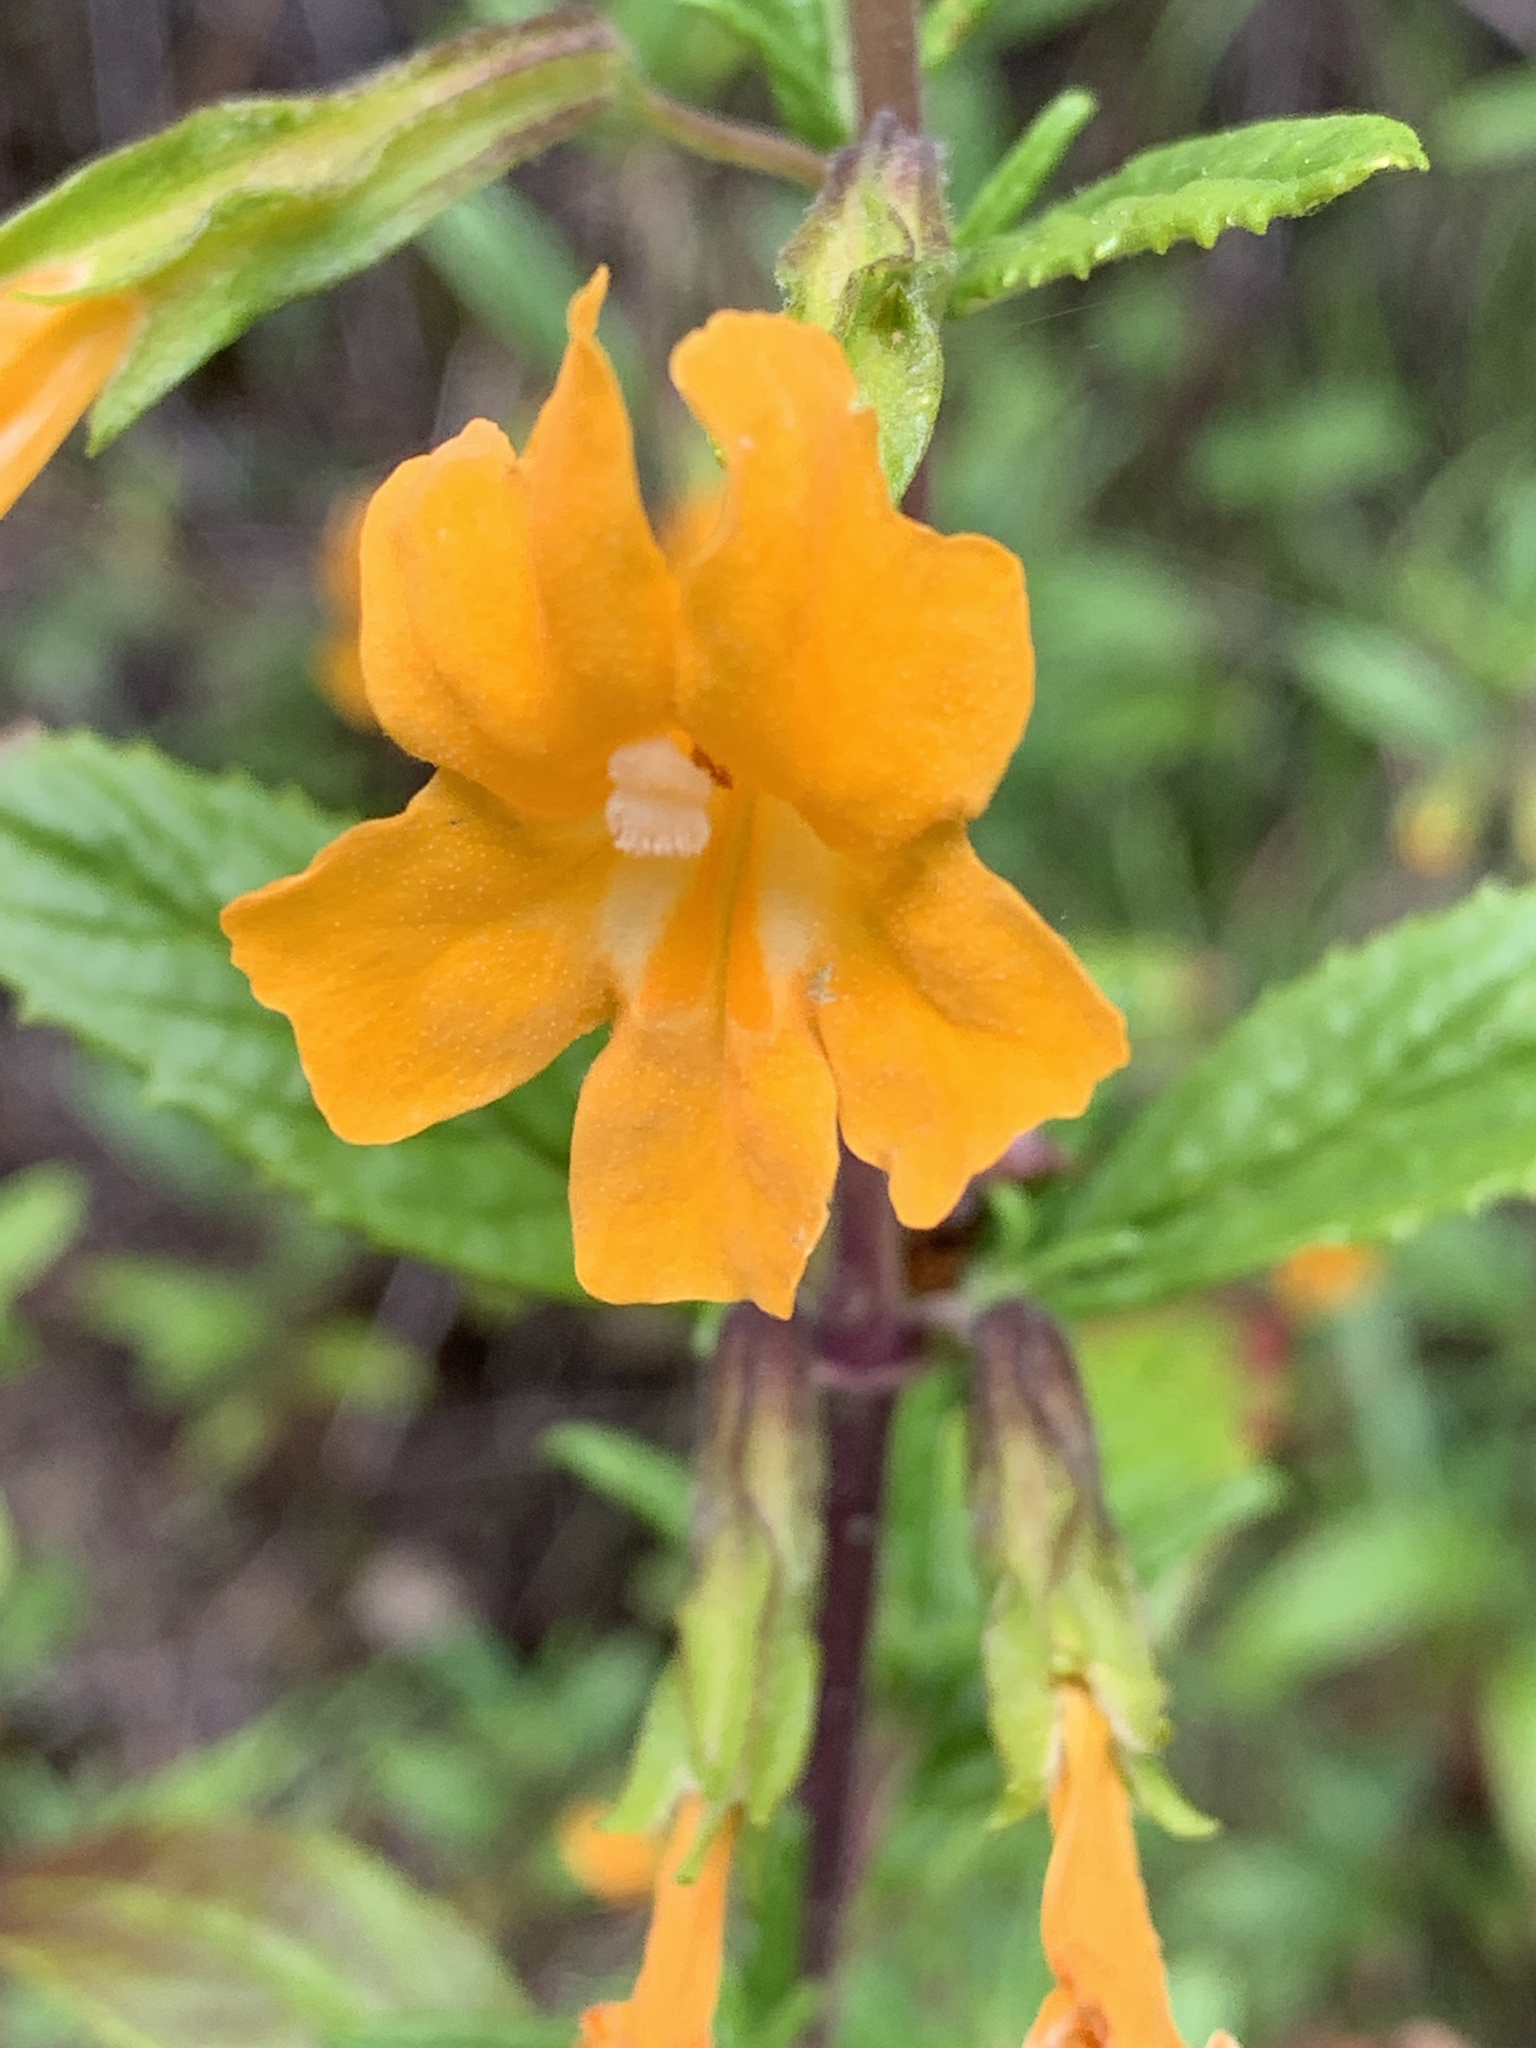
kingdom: Plantae
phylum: Tracheophyta
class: Magnoliopsida
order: Lamiales
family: Phrymaceae
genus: Diplacus
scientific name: Diplacus aurantiacus
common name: Bush monkey-flower
